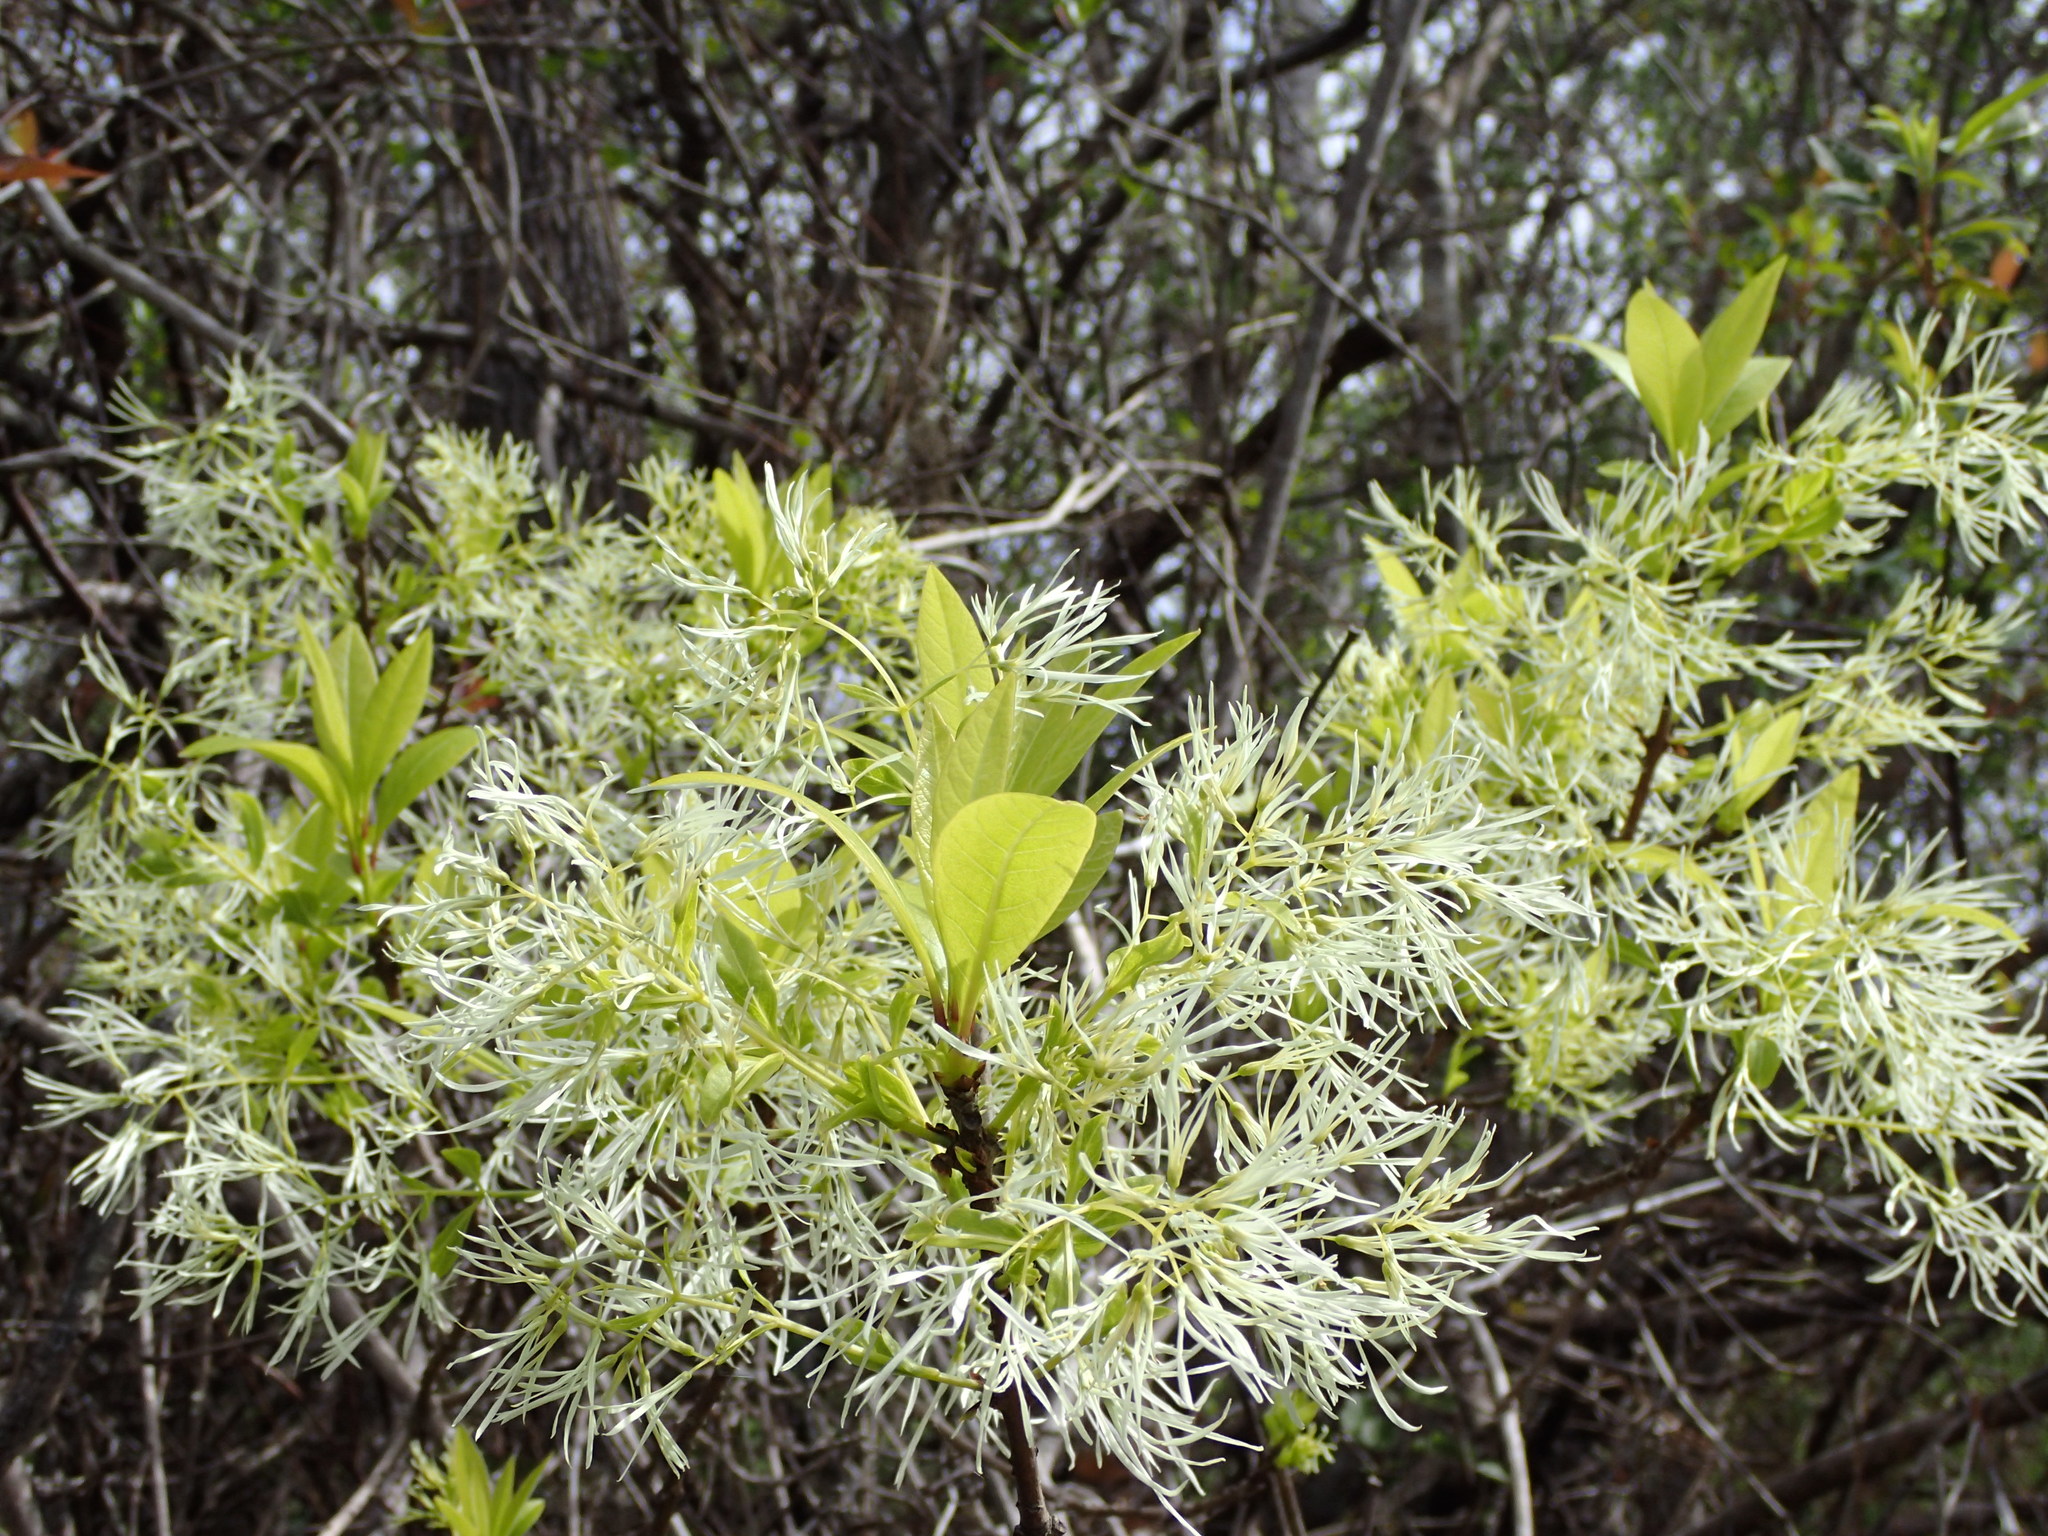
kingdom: Plantae
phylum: Tracheophyta
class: Magnoliopsida
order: Lamiales
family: Oleaceae
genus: Chionanthus
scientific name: Chionanthus virginicus
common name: American fringetree
